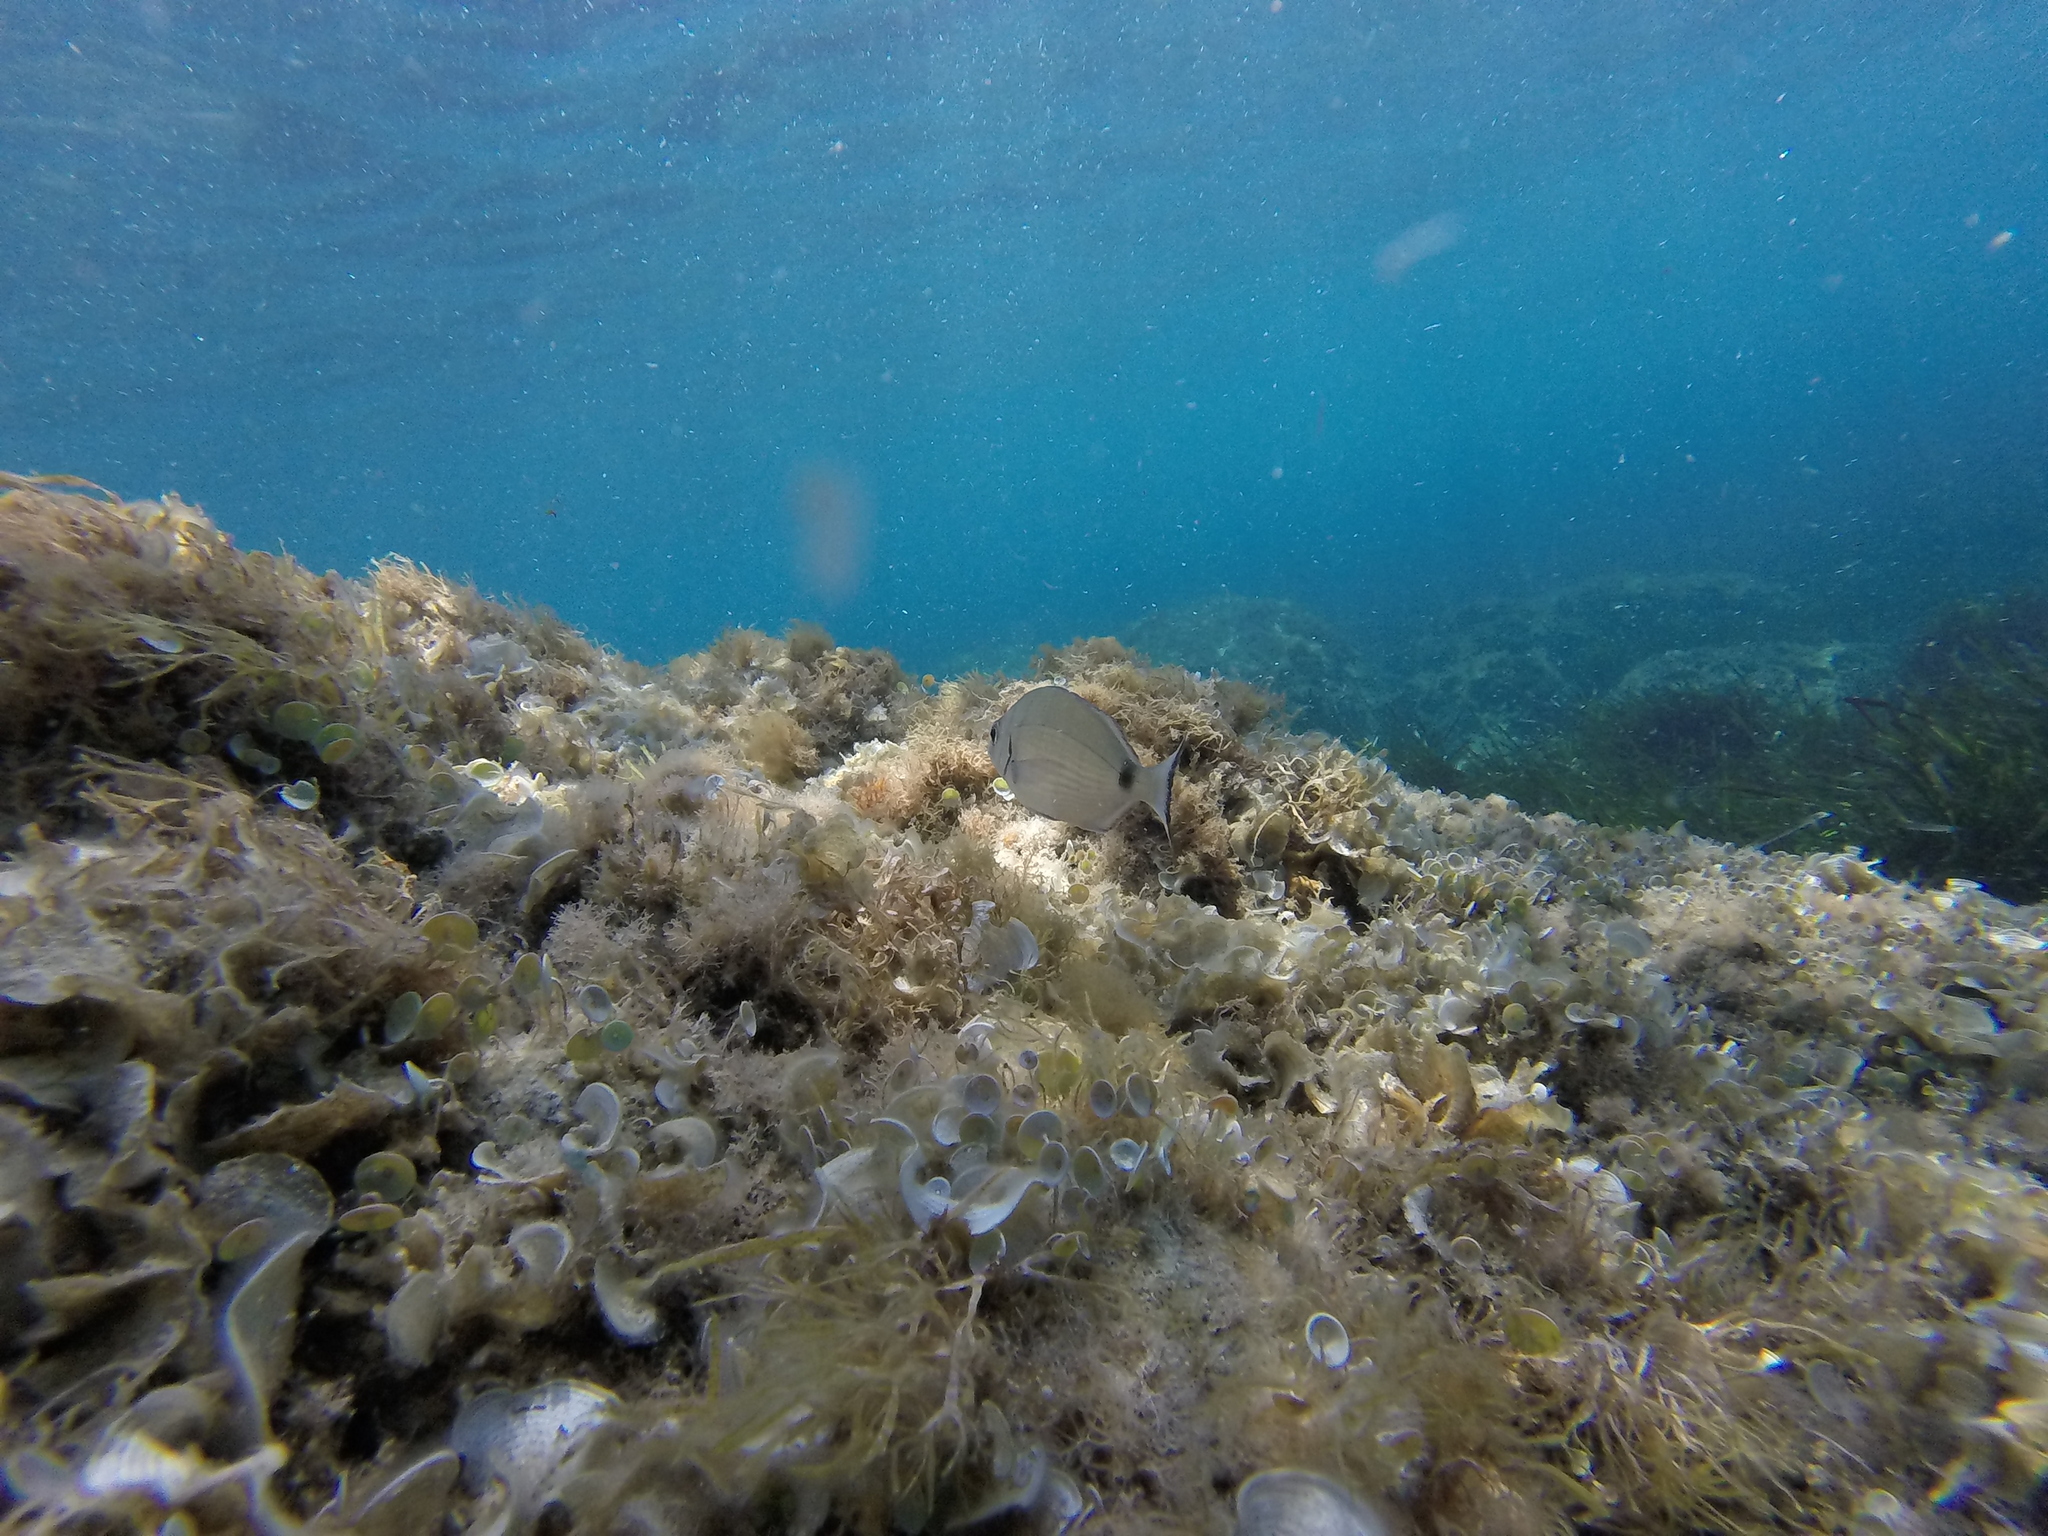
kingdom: Animalia
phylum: Chordata
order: Perciformes
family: Sparidae
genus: Diplodus
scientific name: Diplodus sargus
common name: White seabream
